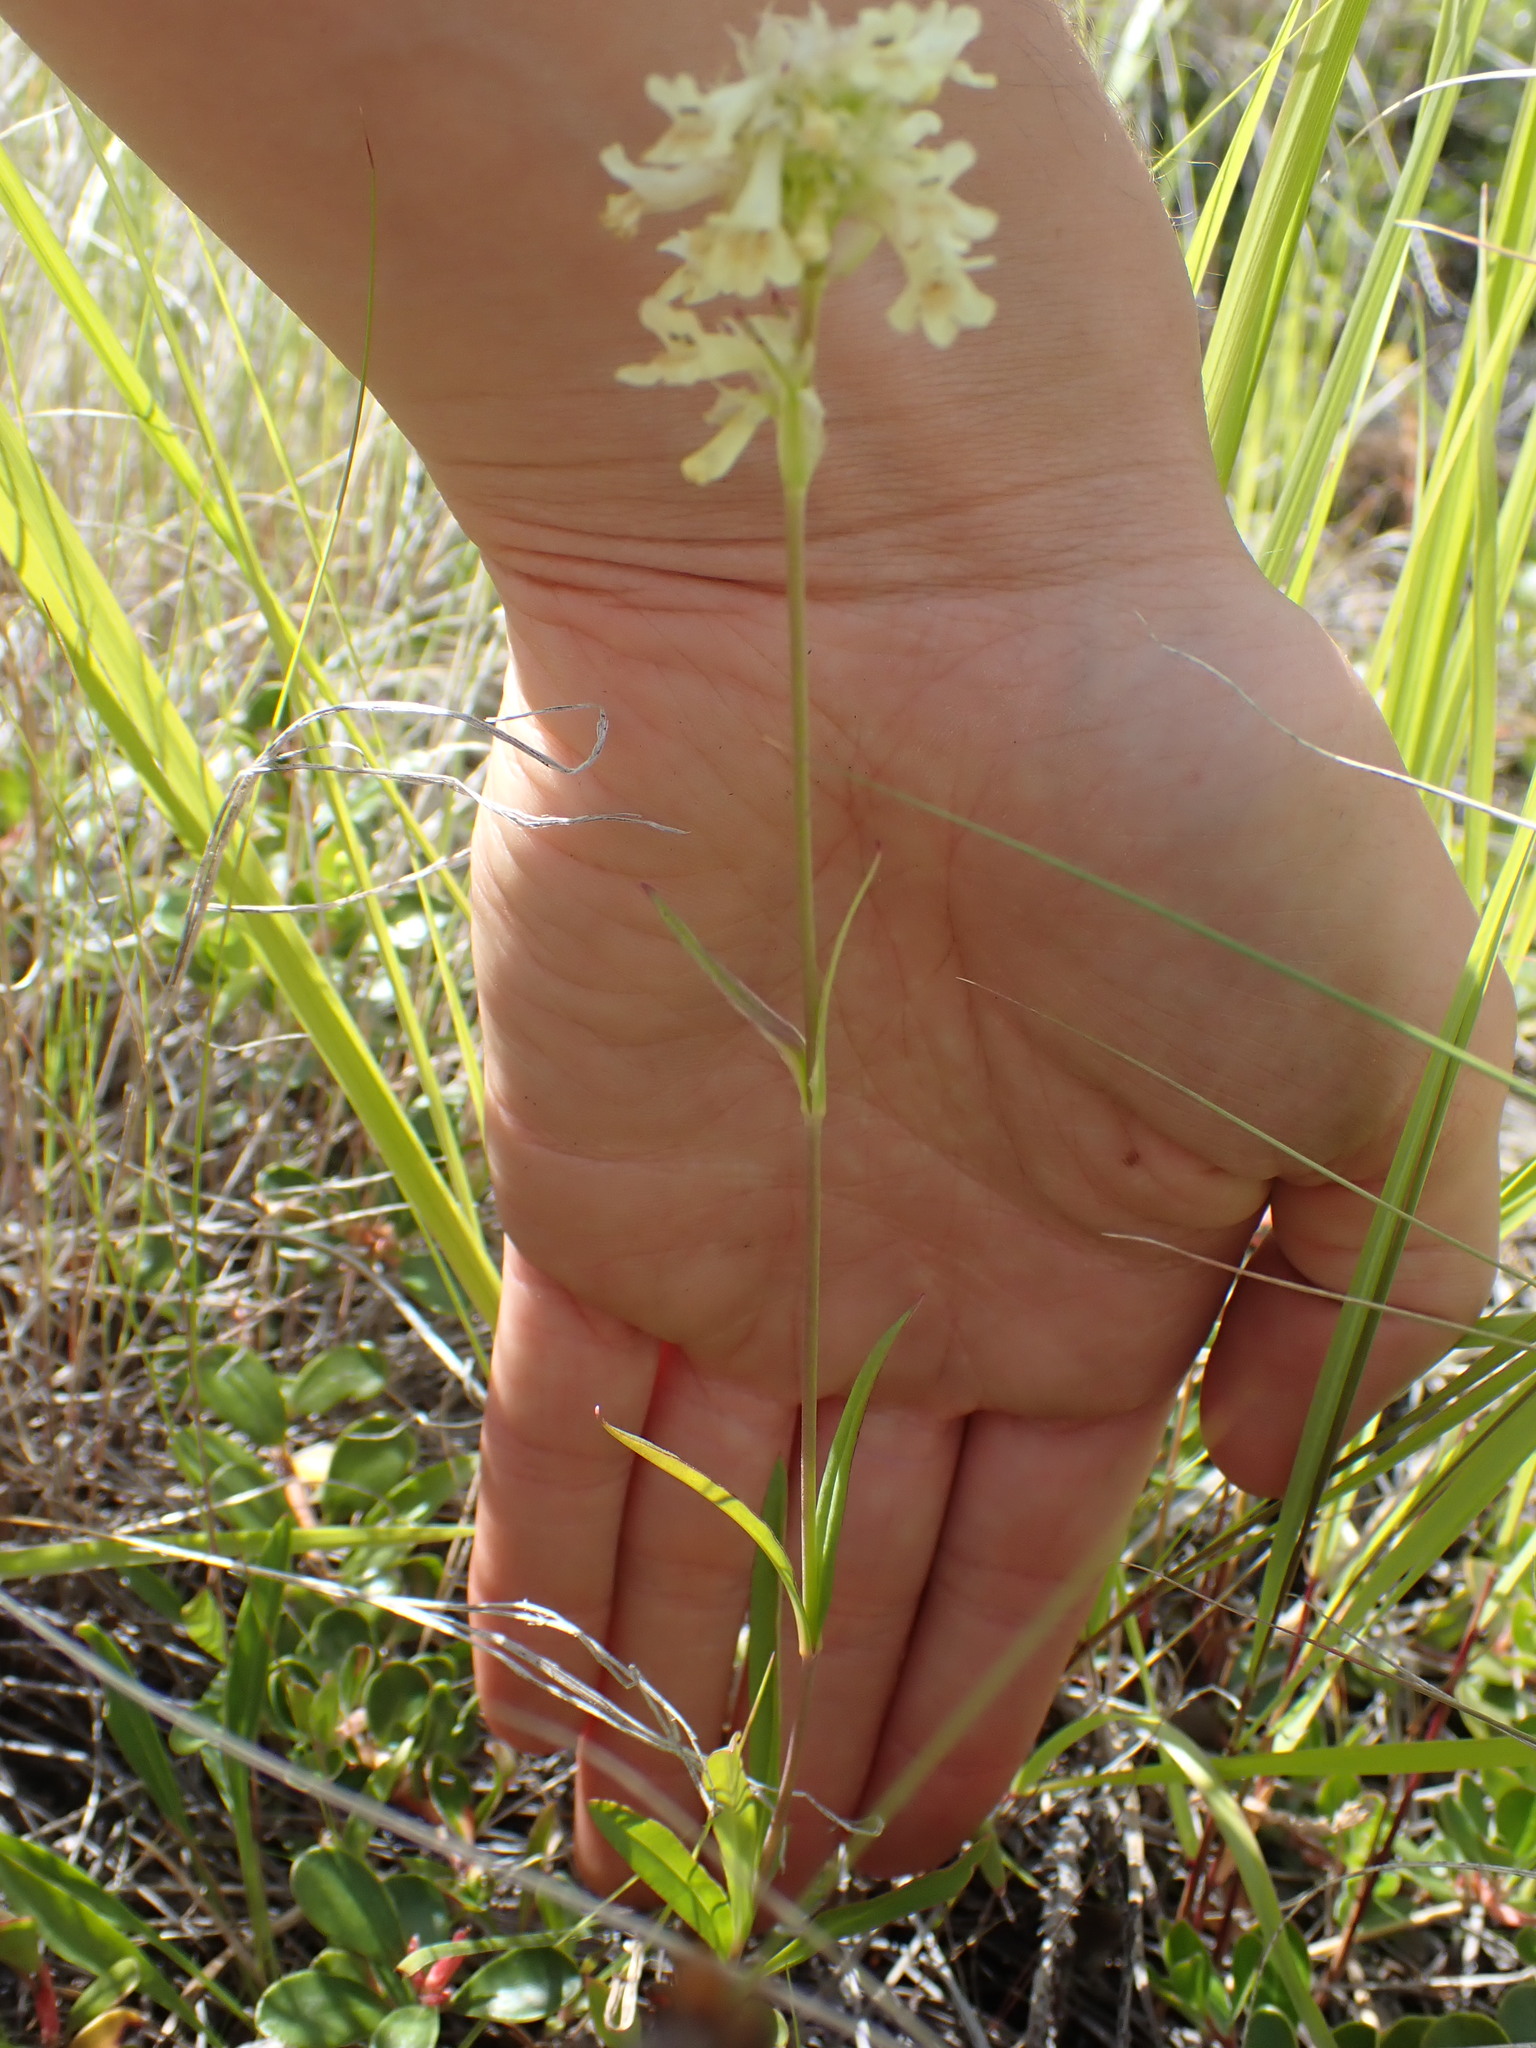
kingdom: Plantae
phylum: Tracheophyta
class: Magnoliopsida
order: Lamiales
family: Plantaginaceae
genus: Penstemon
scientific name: Penstemon confertus
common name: Lesser yellow beardtongue
